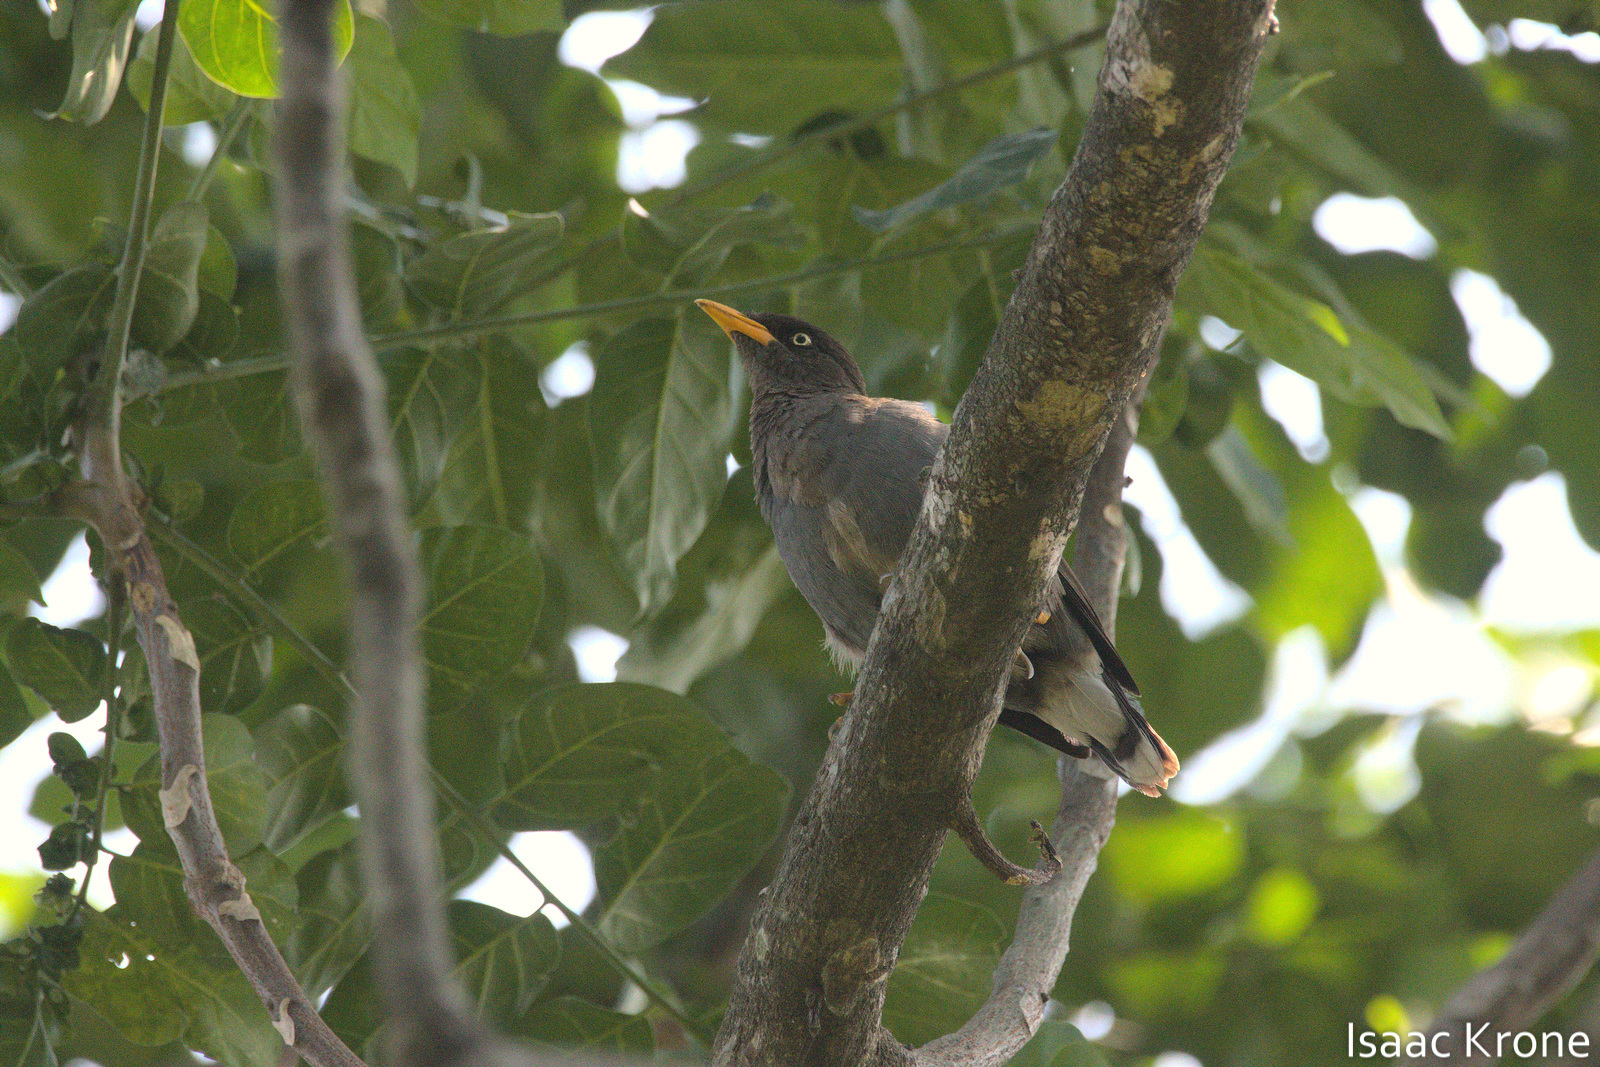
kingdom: Animalia
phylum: Chordata
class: Aves
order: Passeriformes
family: Sturnidae
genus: Acridotheres
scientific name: Acridotheres javanicus
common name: Javan myna
